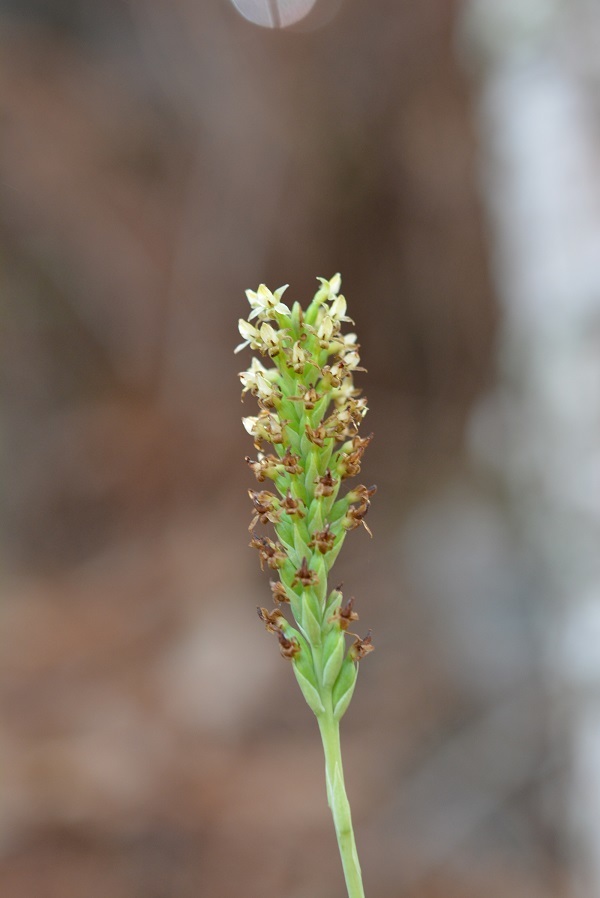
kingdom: Plantae
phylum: Tracheophyta
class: Liliopsida
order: Asparagales
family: Orchidaceae
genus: Galeoglossum
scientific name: Galeoglossum tubulosum
